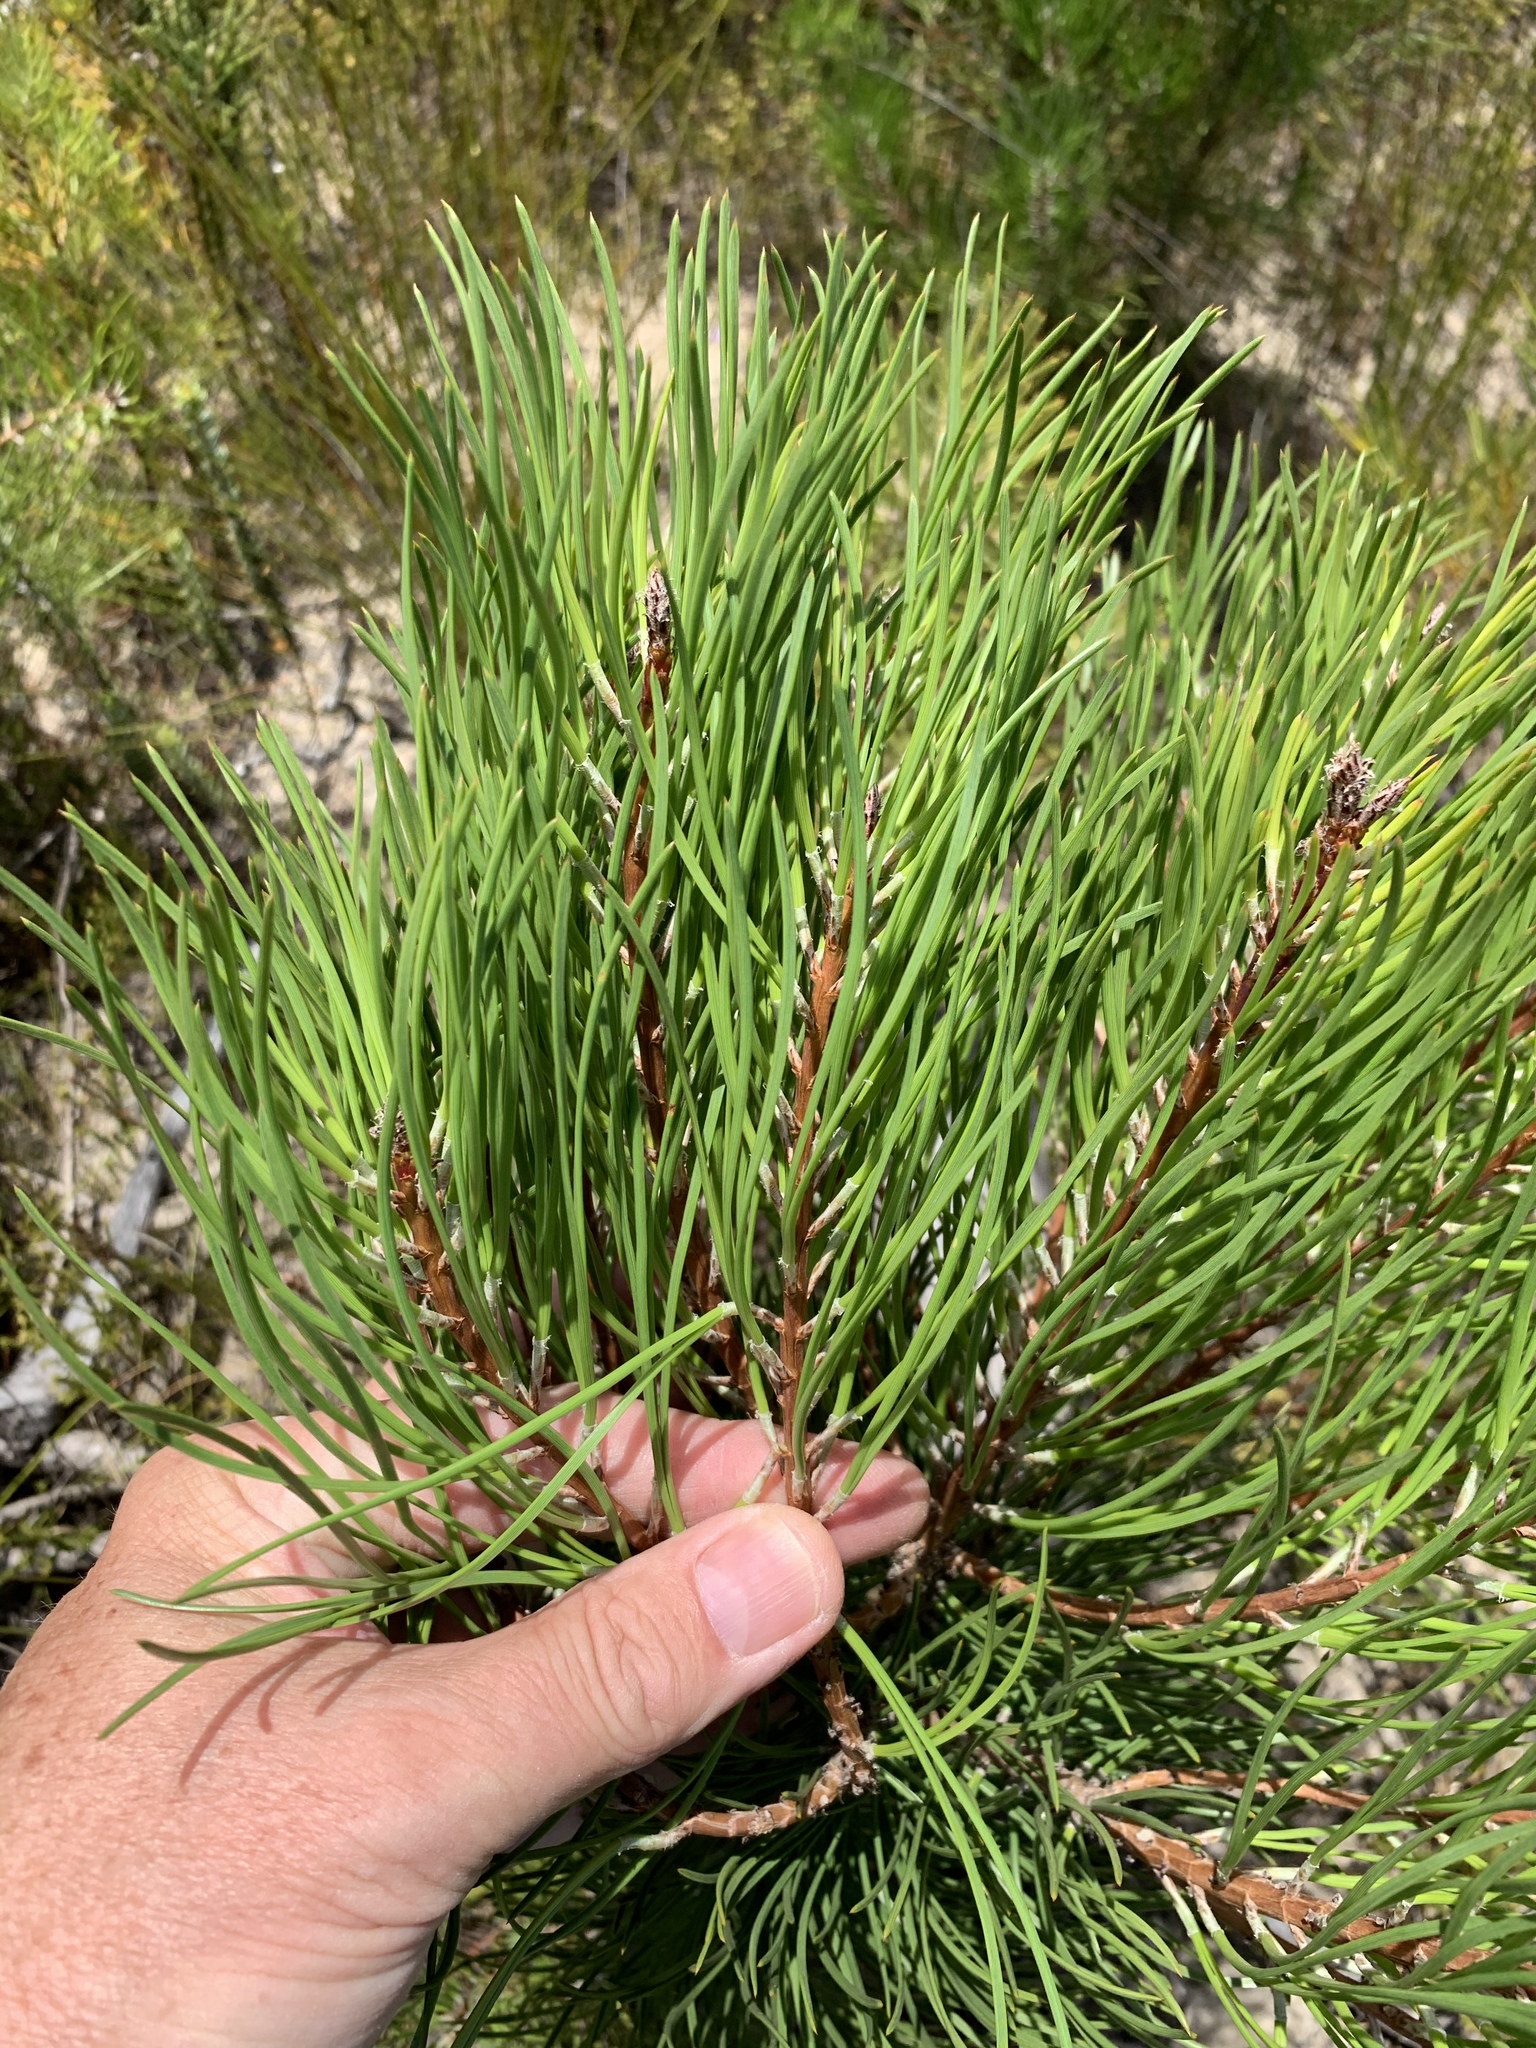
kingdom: Plantae
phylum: Tracheophyta
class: Pinopsida
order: Pinales
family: Pinaceae
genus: Pinus
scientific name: Pinus pinaster
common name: Maritime pine
